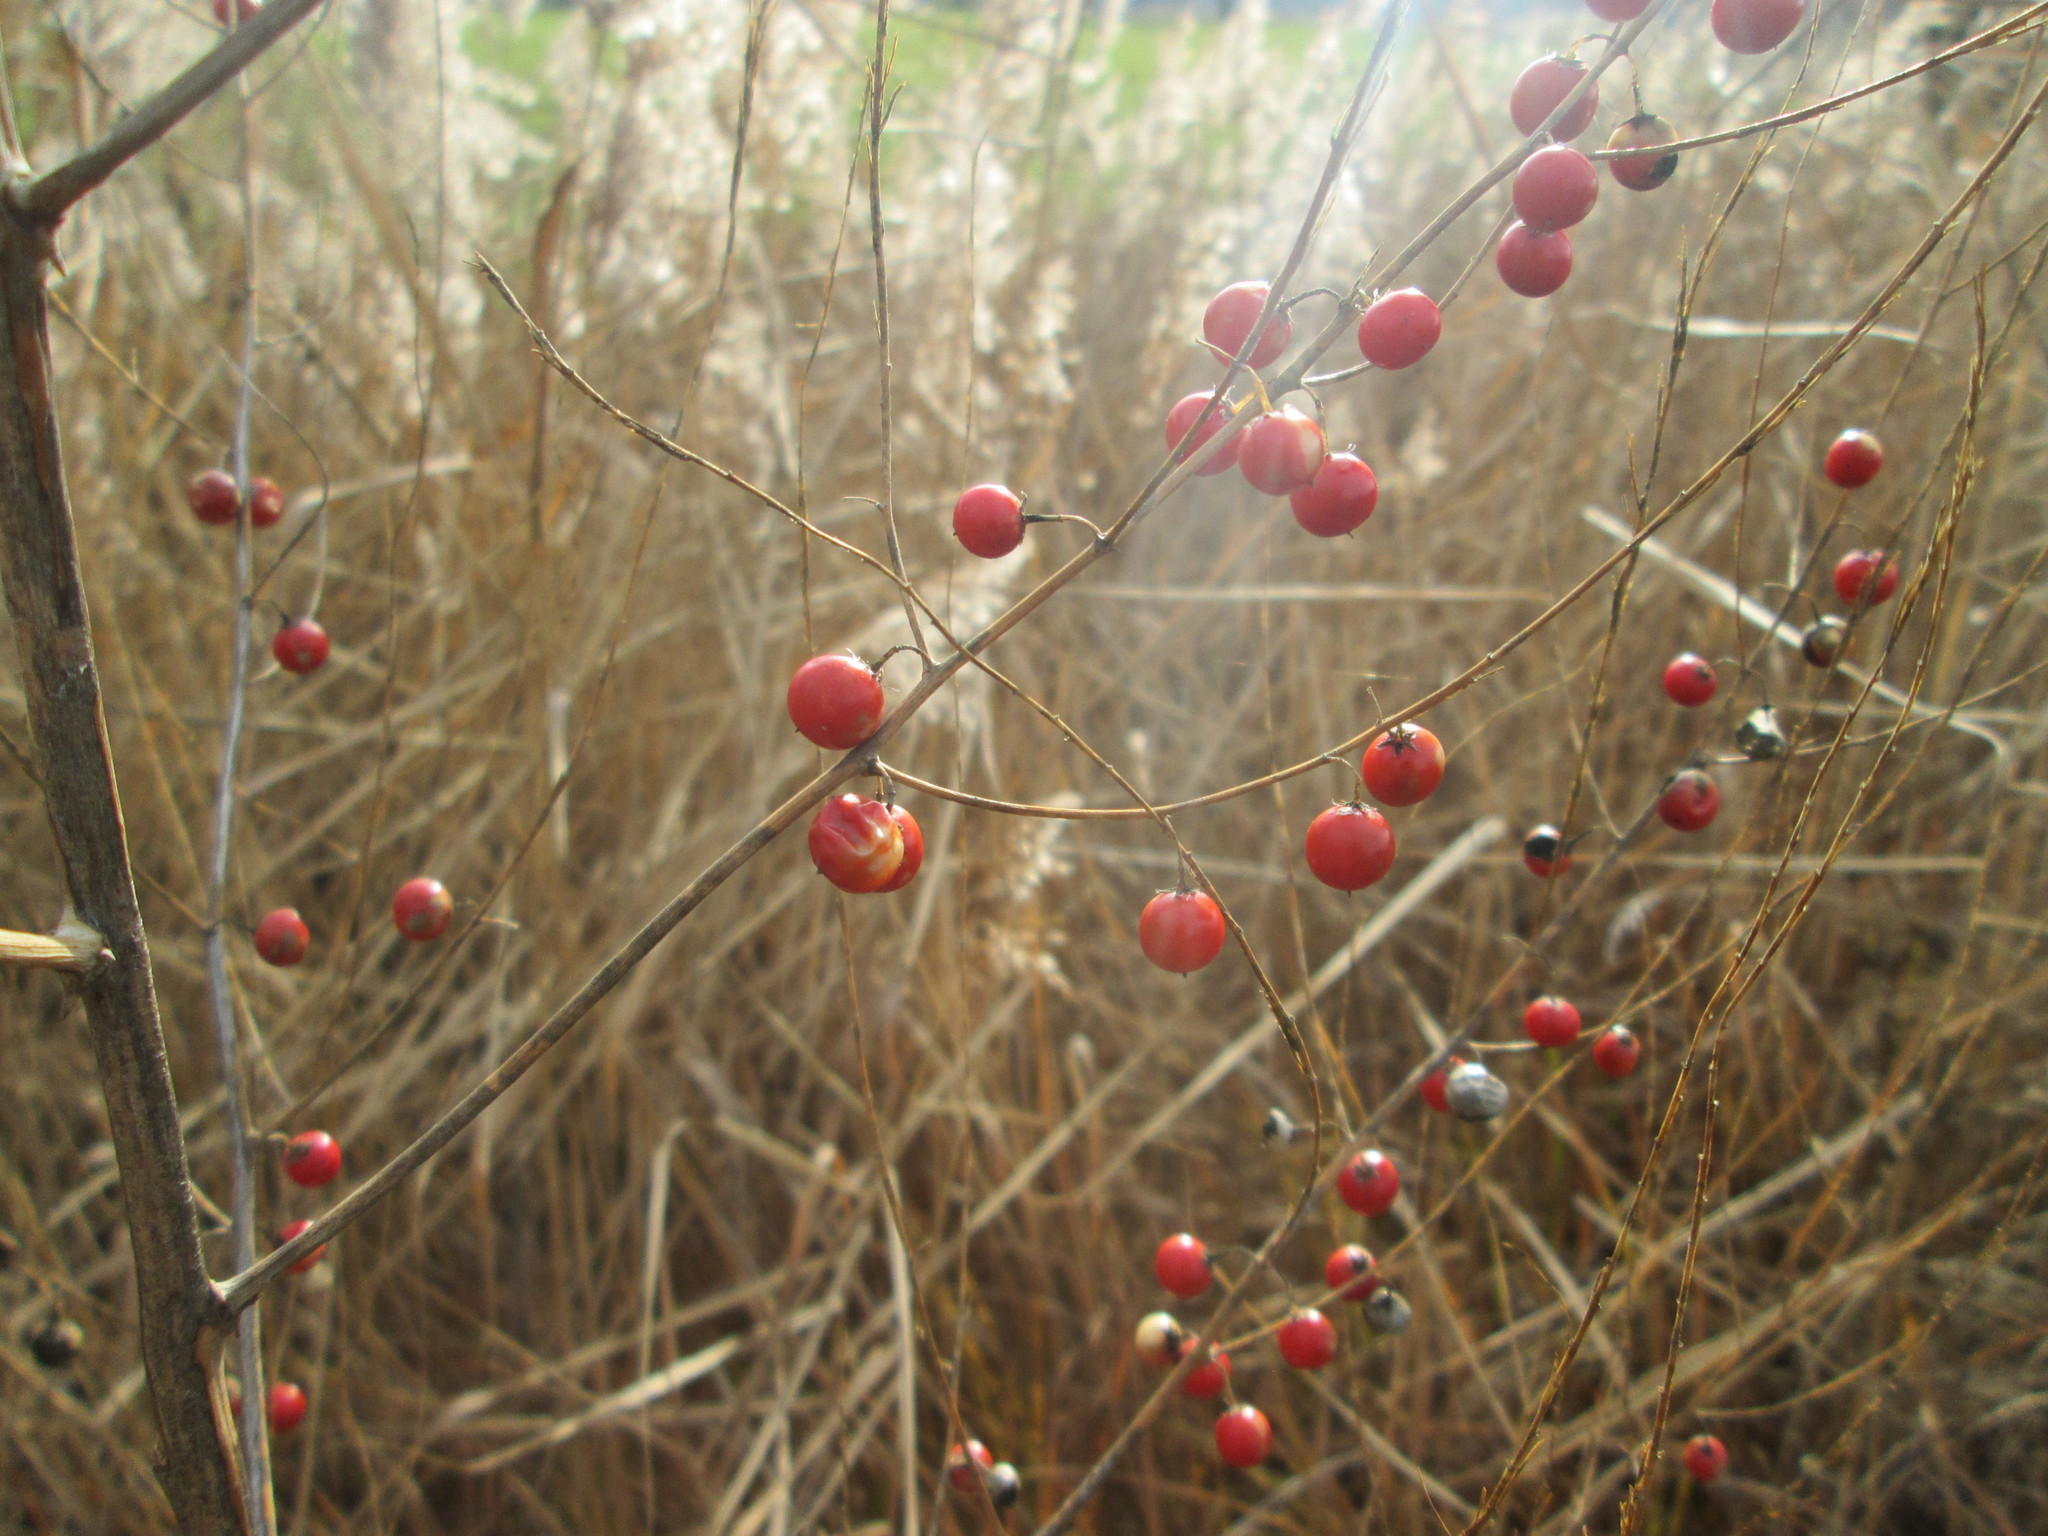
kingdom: Plantae
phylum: Tracheophyta
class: Liliopsida
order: Asparagales
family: Asparagaceae
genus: Asparagus
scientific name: Asparagus officinalis
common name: Garden asparagus
